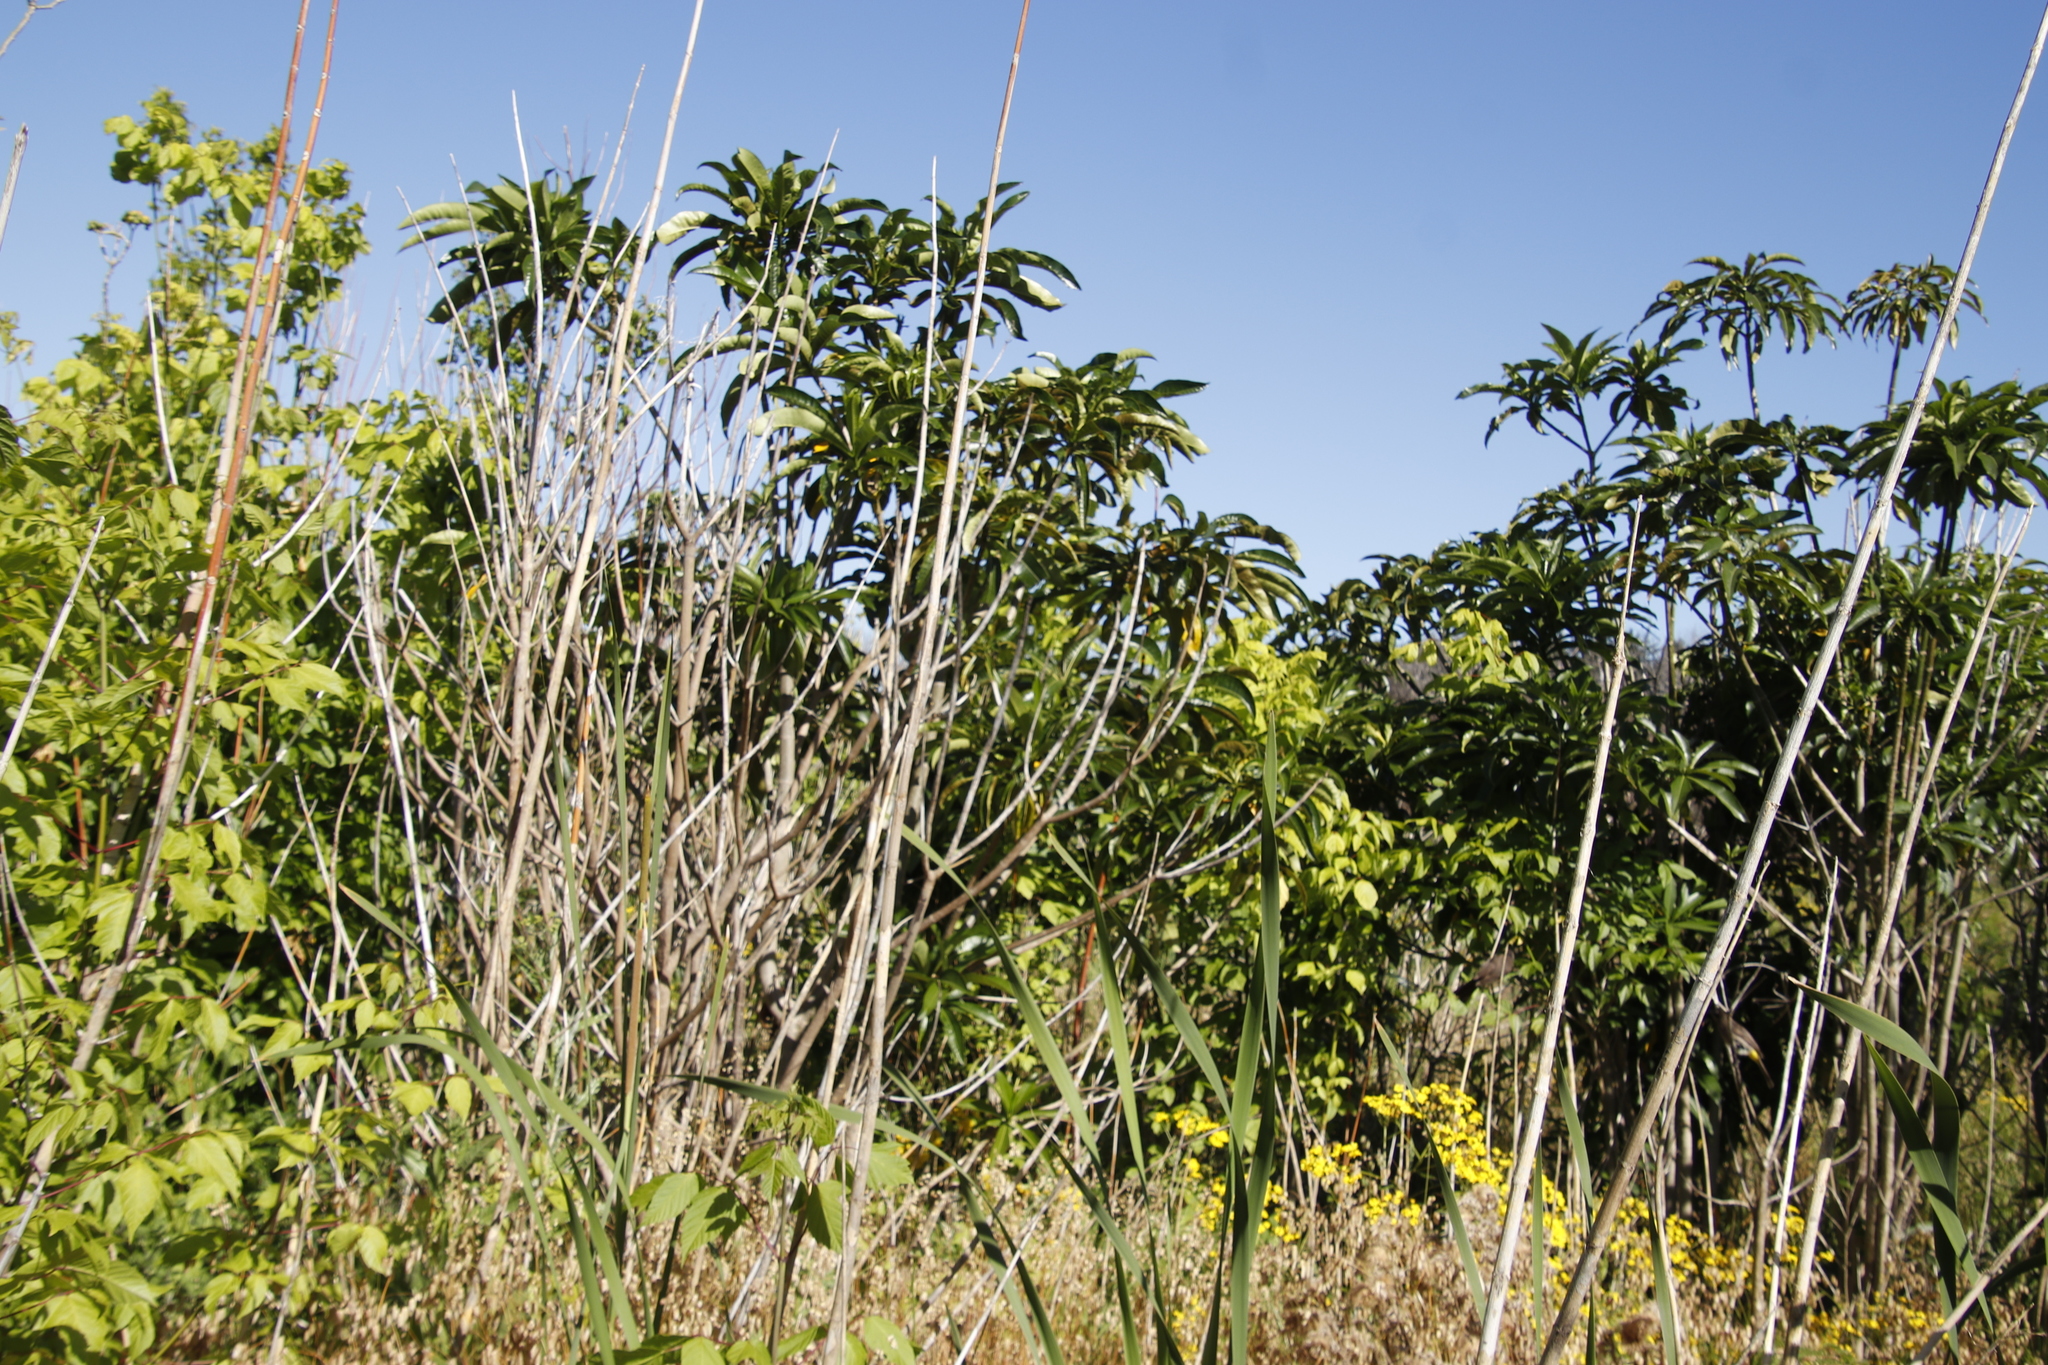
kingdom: Plantae
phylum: Tracheophyta
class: Magnoliopsida
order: Gentianales
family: Apocynaceae
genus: Rauvolfia
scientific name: Rauvolfia caffra
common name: Quininetree
